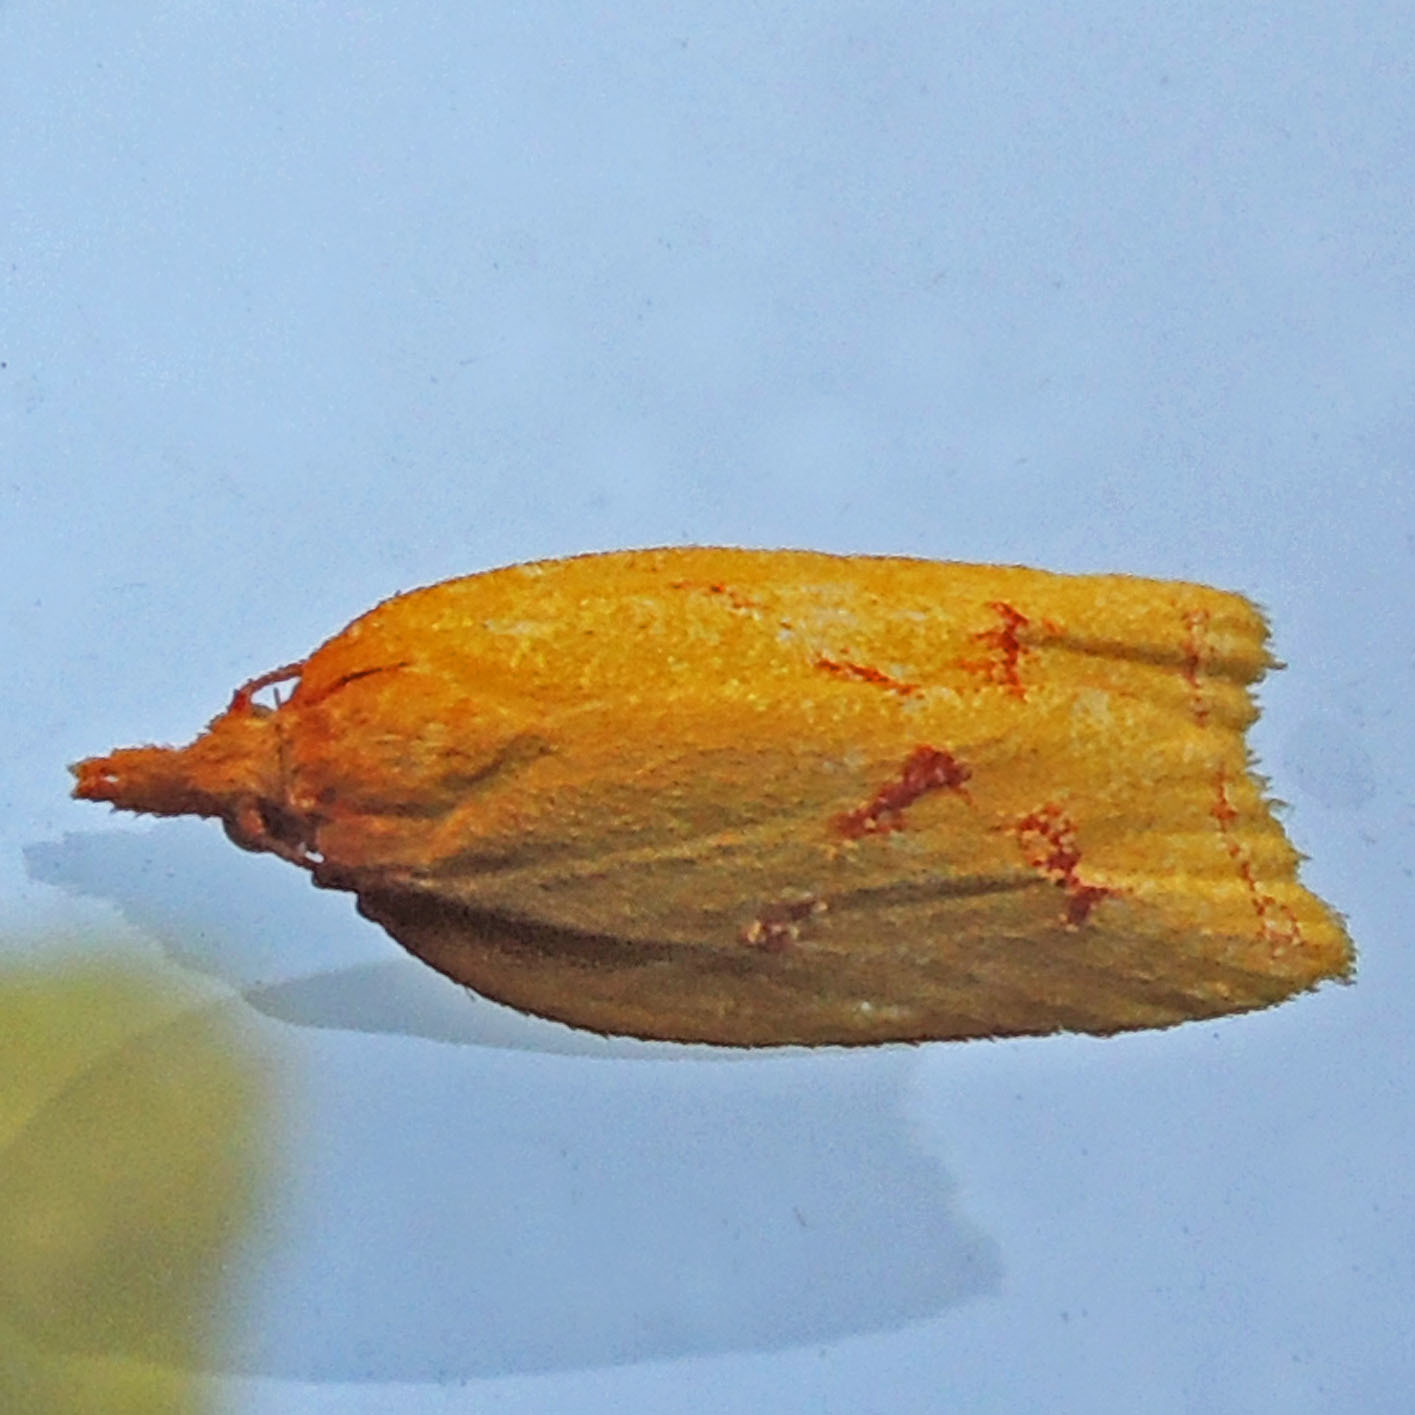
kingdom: Animalia
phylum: Arthropoda
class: Insecta
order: Lepidoptera
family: Tortricidae
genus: Sparganothis
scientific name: Sparganothis sulfureana
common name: Sparganothis fruitworm moth
